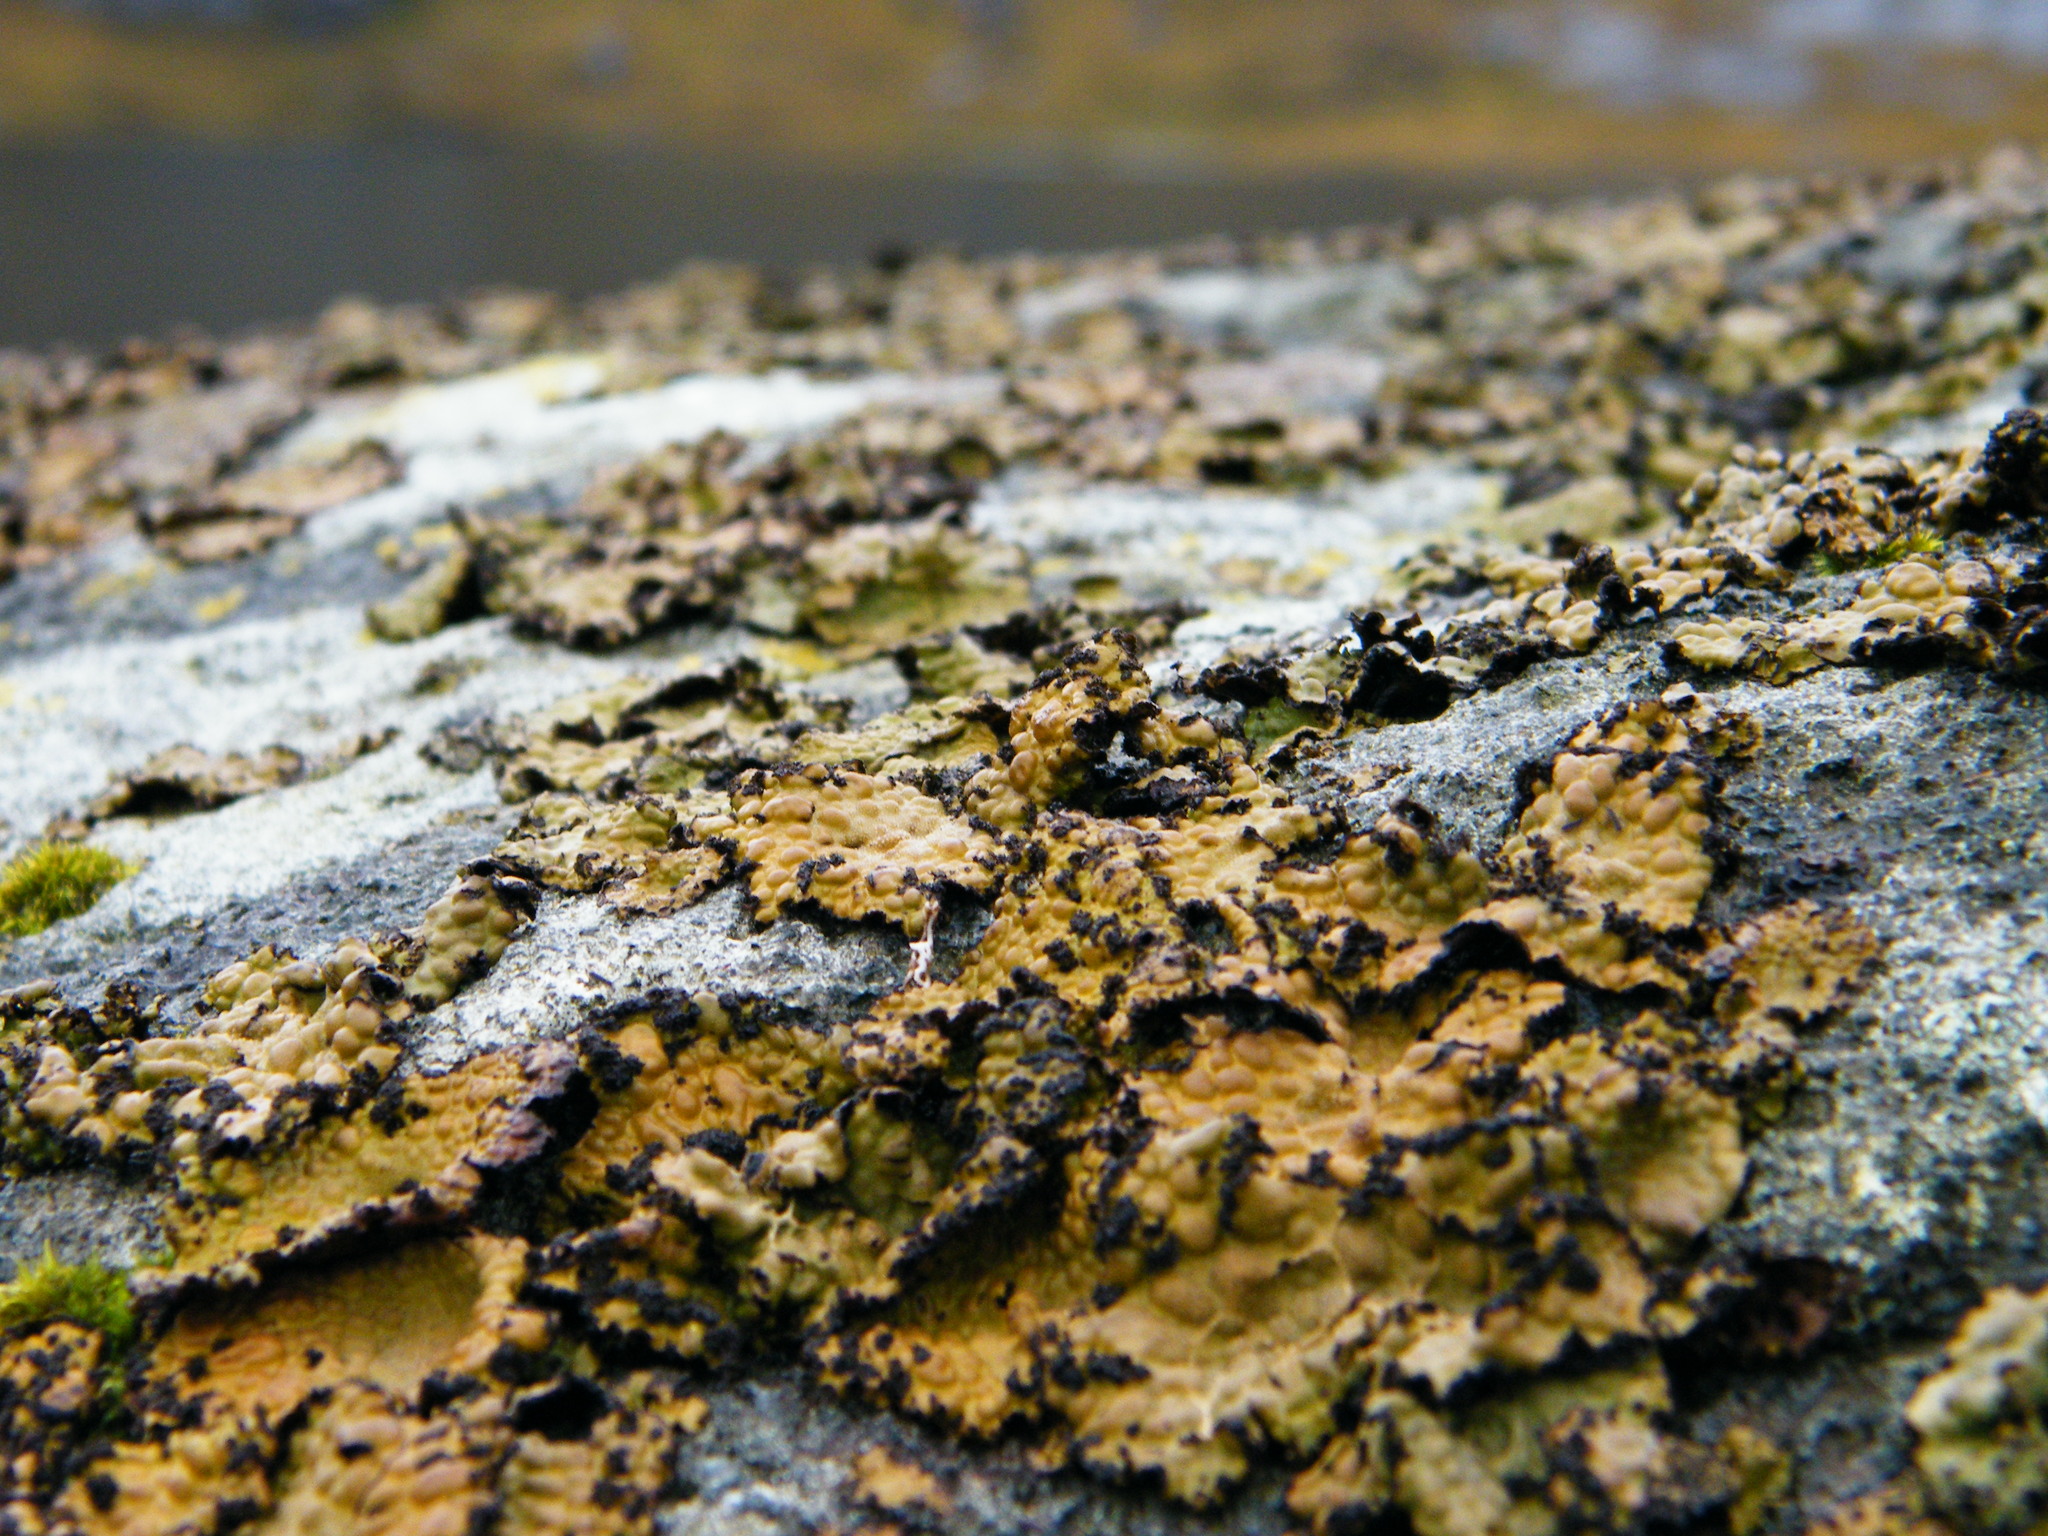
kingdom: Fungi
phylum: Ascomycota
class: Lecanoromycetes
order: Umbilicariales
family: Umbilicariaceae
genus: Lasallia
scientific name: Lasallia pustulata
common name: Blistered toadskin lichen
